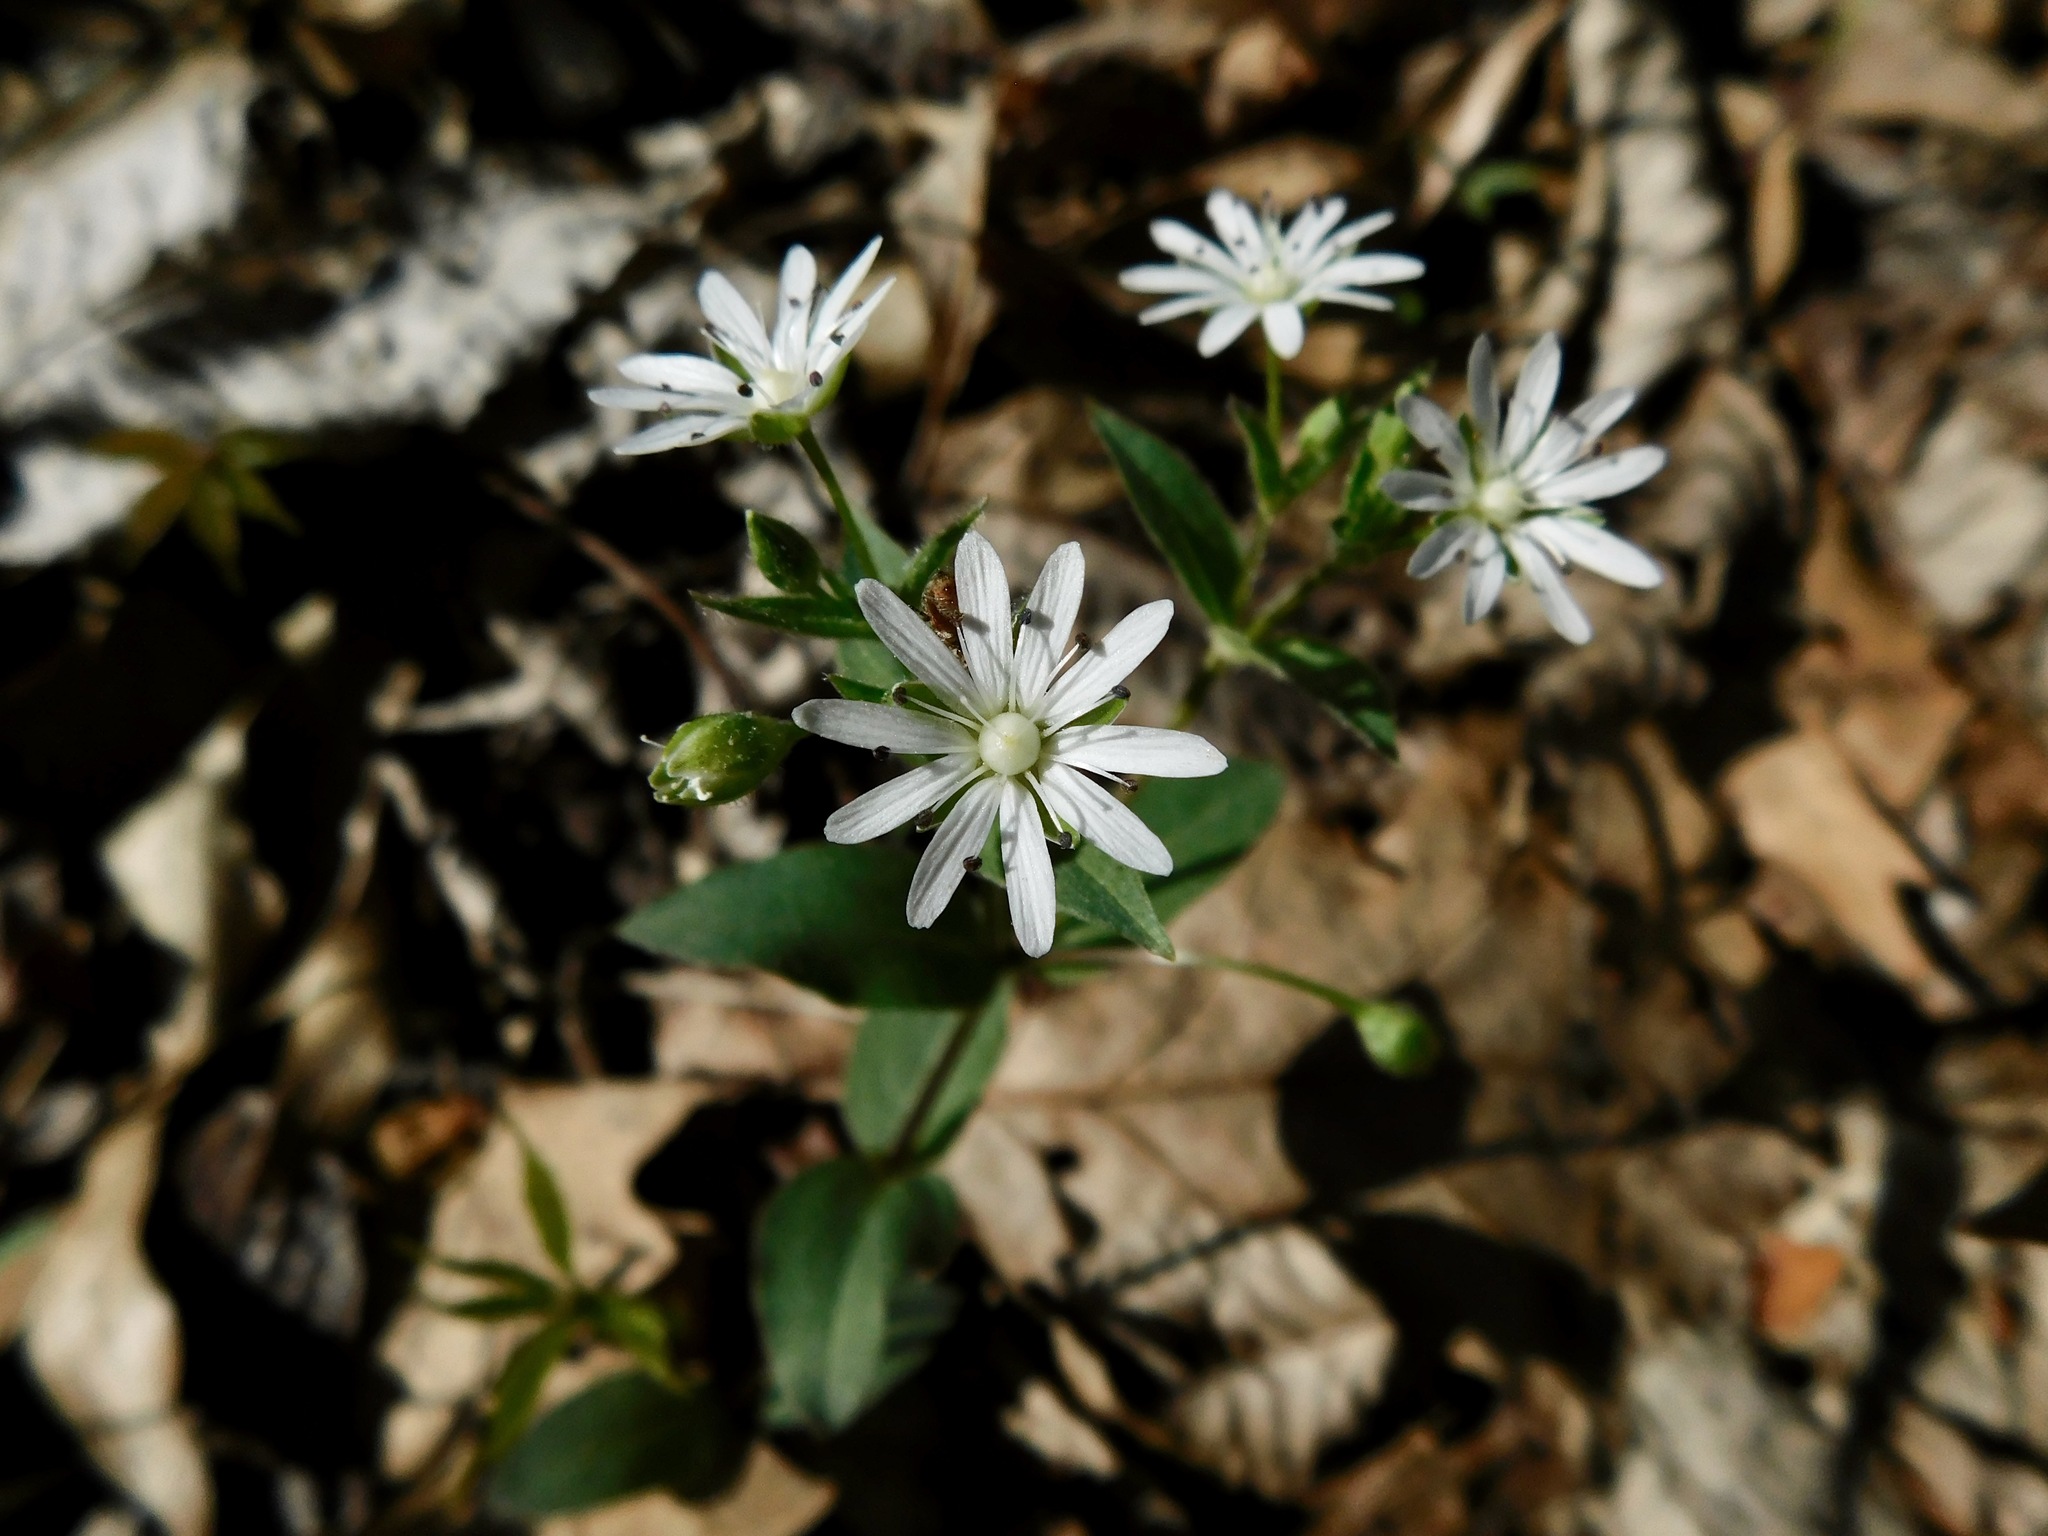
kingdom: Plantae
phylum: Tracheophyta
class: Magnoliopsida
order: Caryophyllales
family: Caryophyllaceae
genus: Stellaria
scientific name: Stellaria pubera
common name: Star chickweed
